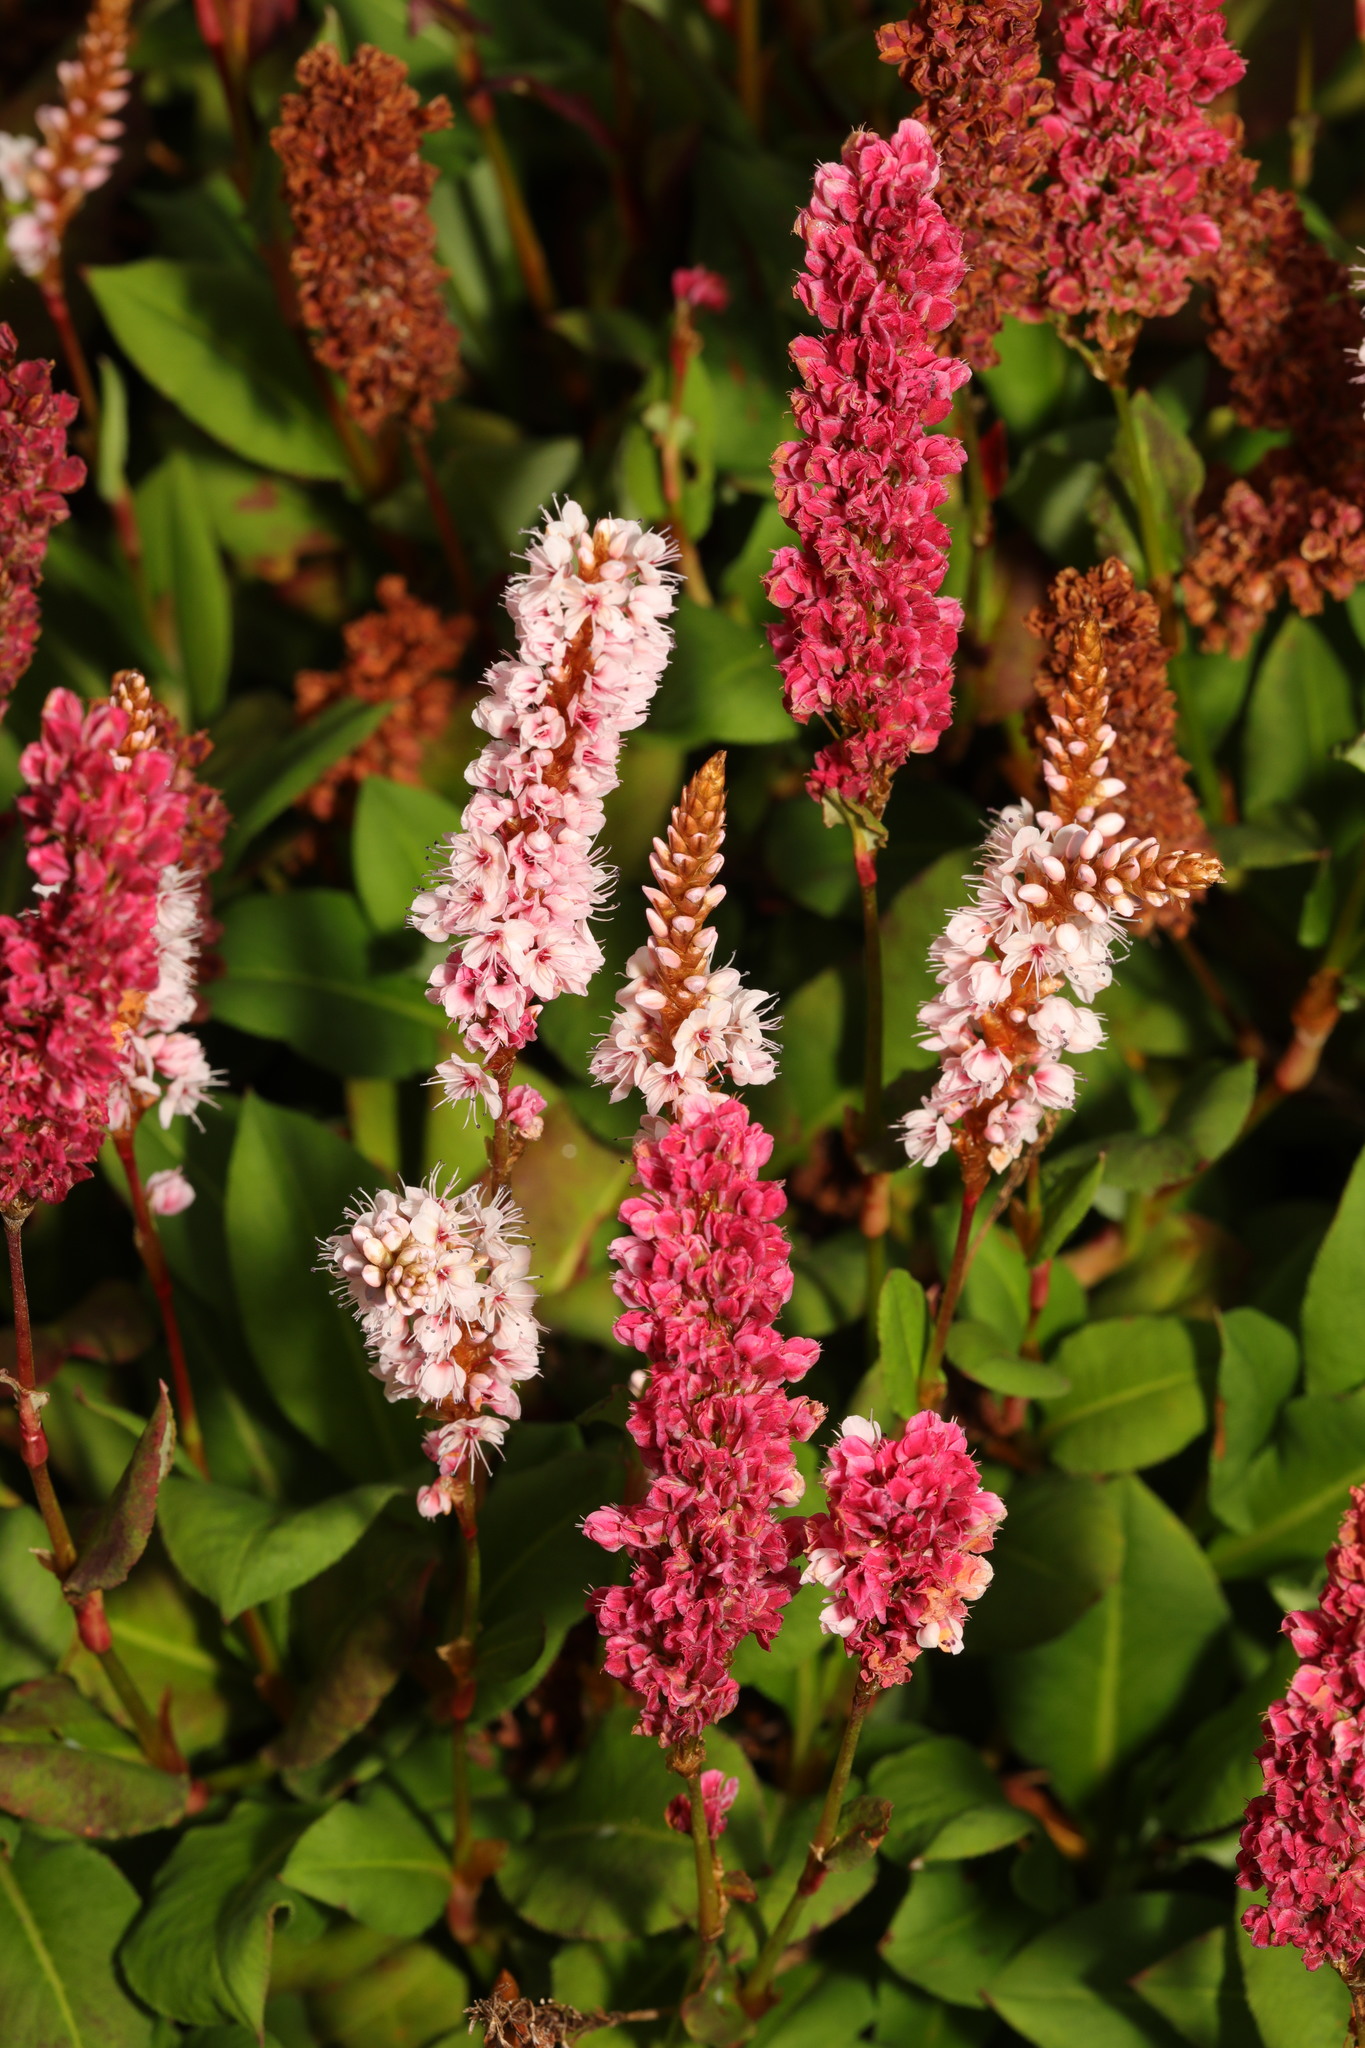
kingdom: Plantae
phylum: Tracheophyta
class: Magnoliopsida
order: Caryophyllales
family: Polygonaceae
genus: Bistorta
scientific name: Bistorta affinis
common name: Himalayan fleeceflower
